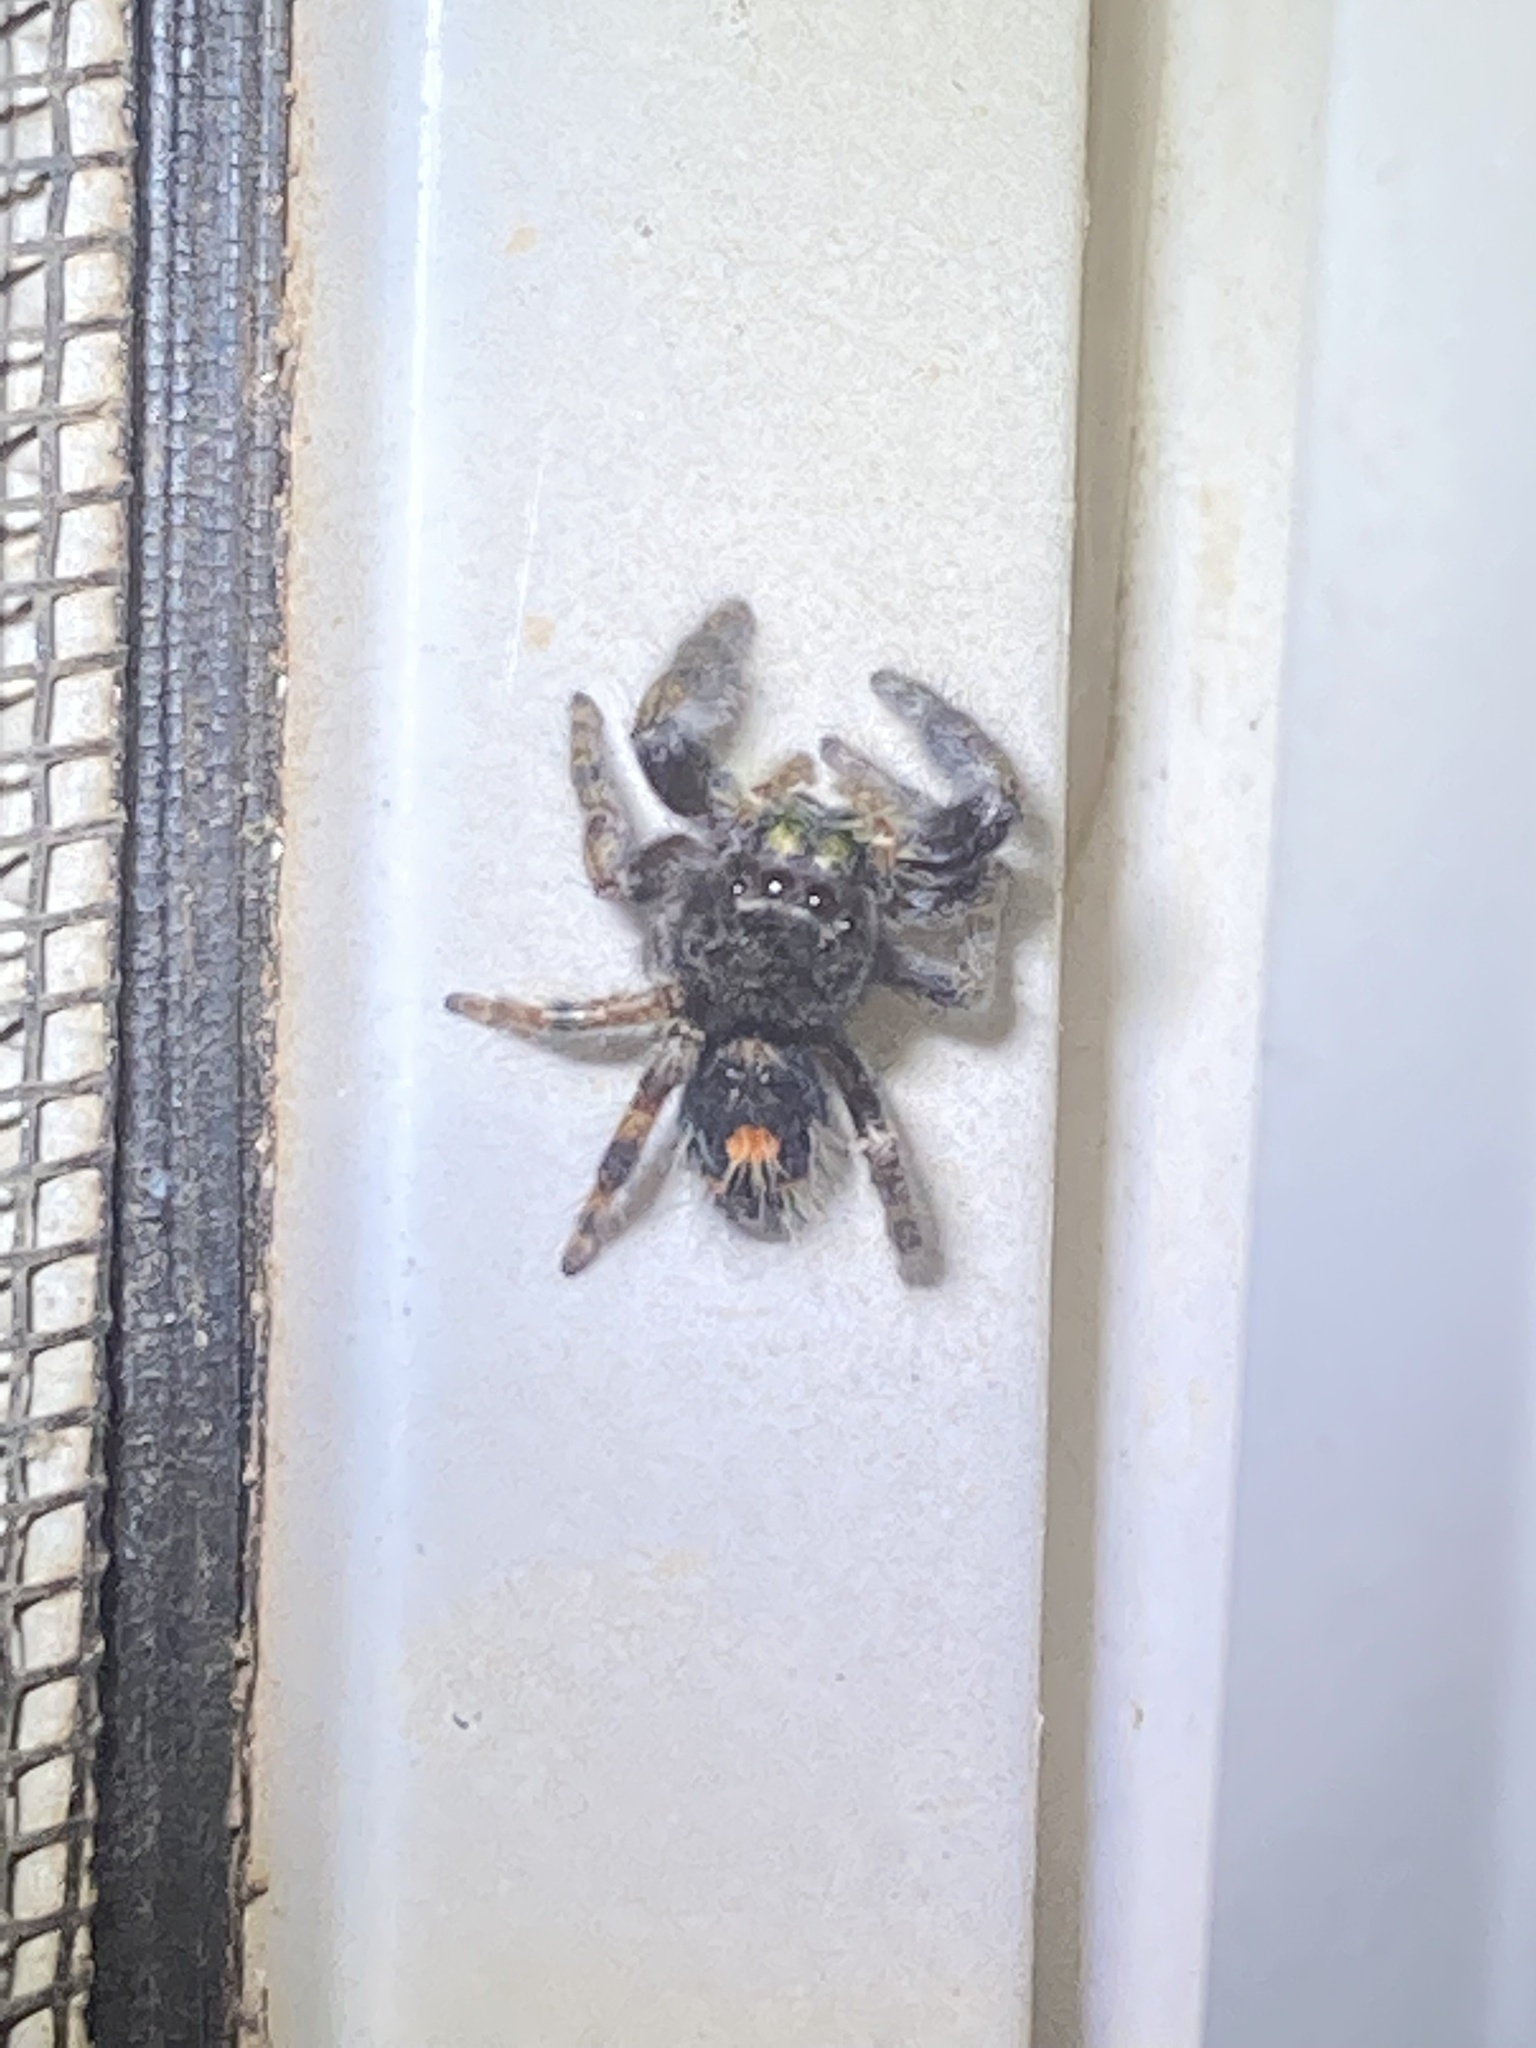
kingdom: Animalia
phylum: Arthropoda
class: Arachnida
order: Araneae
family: Salticidae
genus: Phidippus
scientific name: Phidippus audax
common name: Bold jumper
